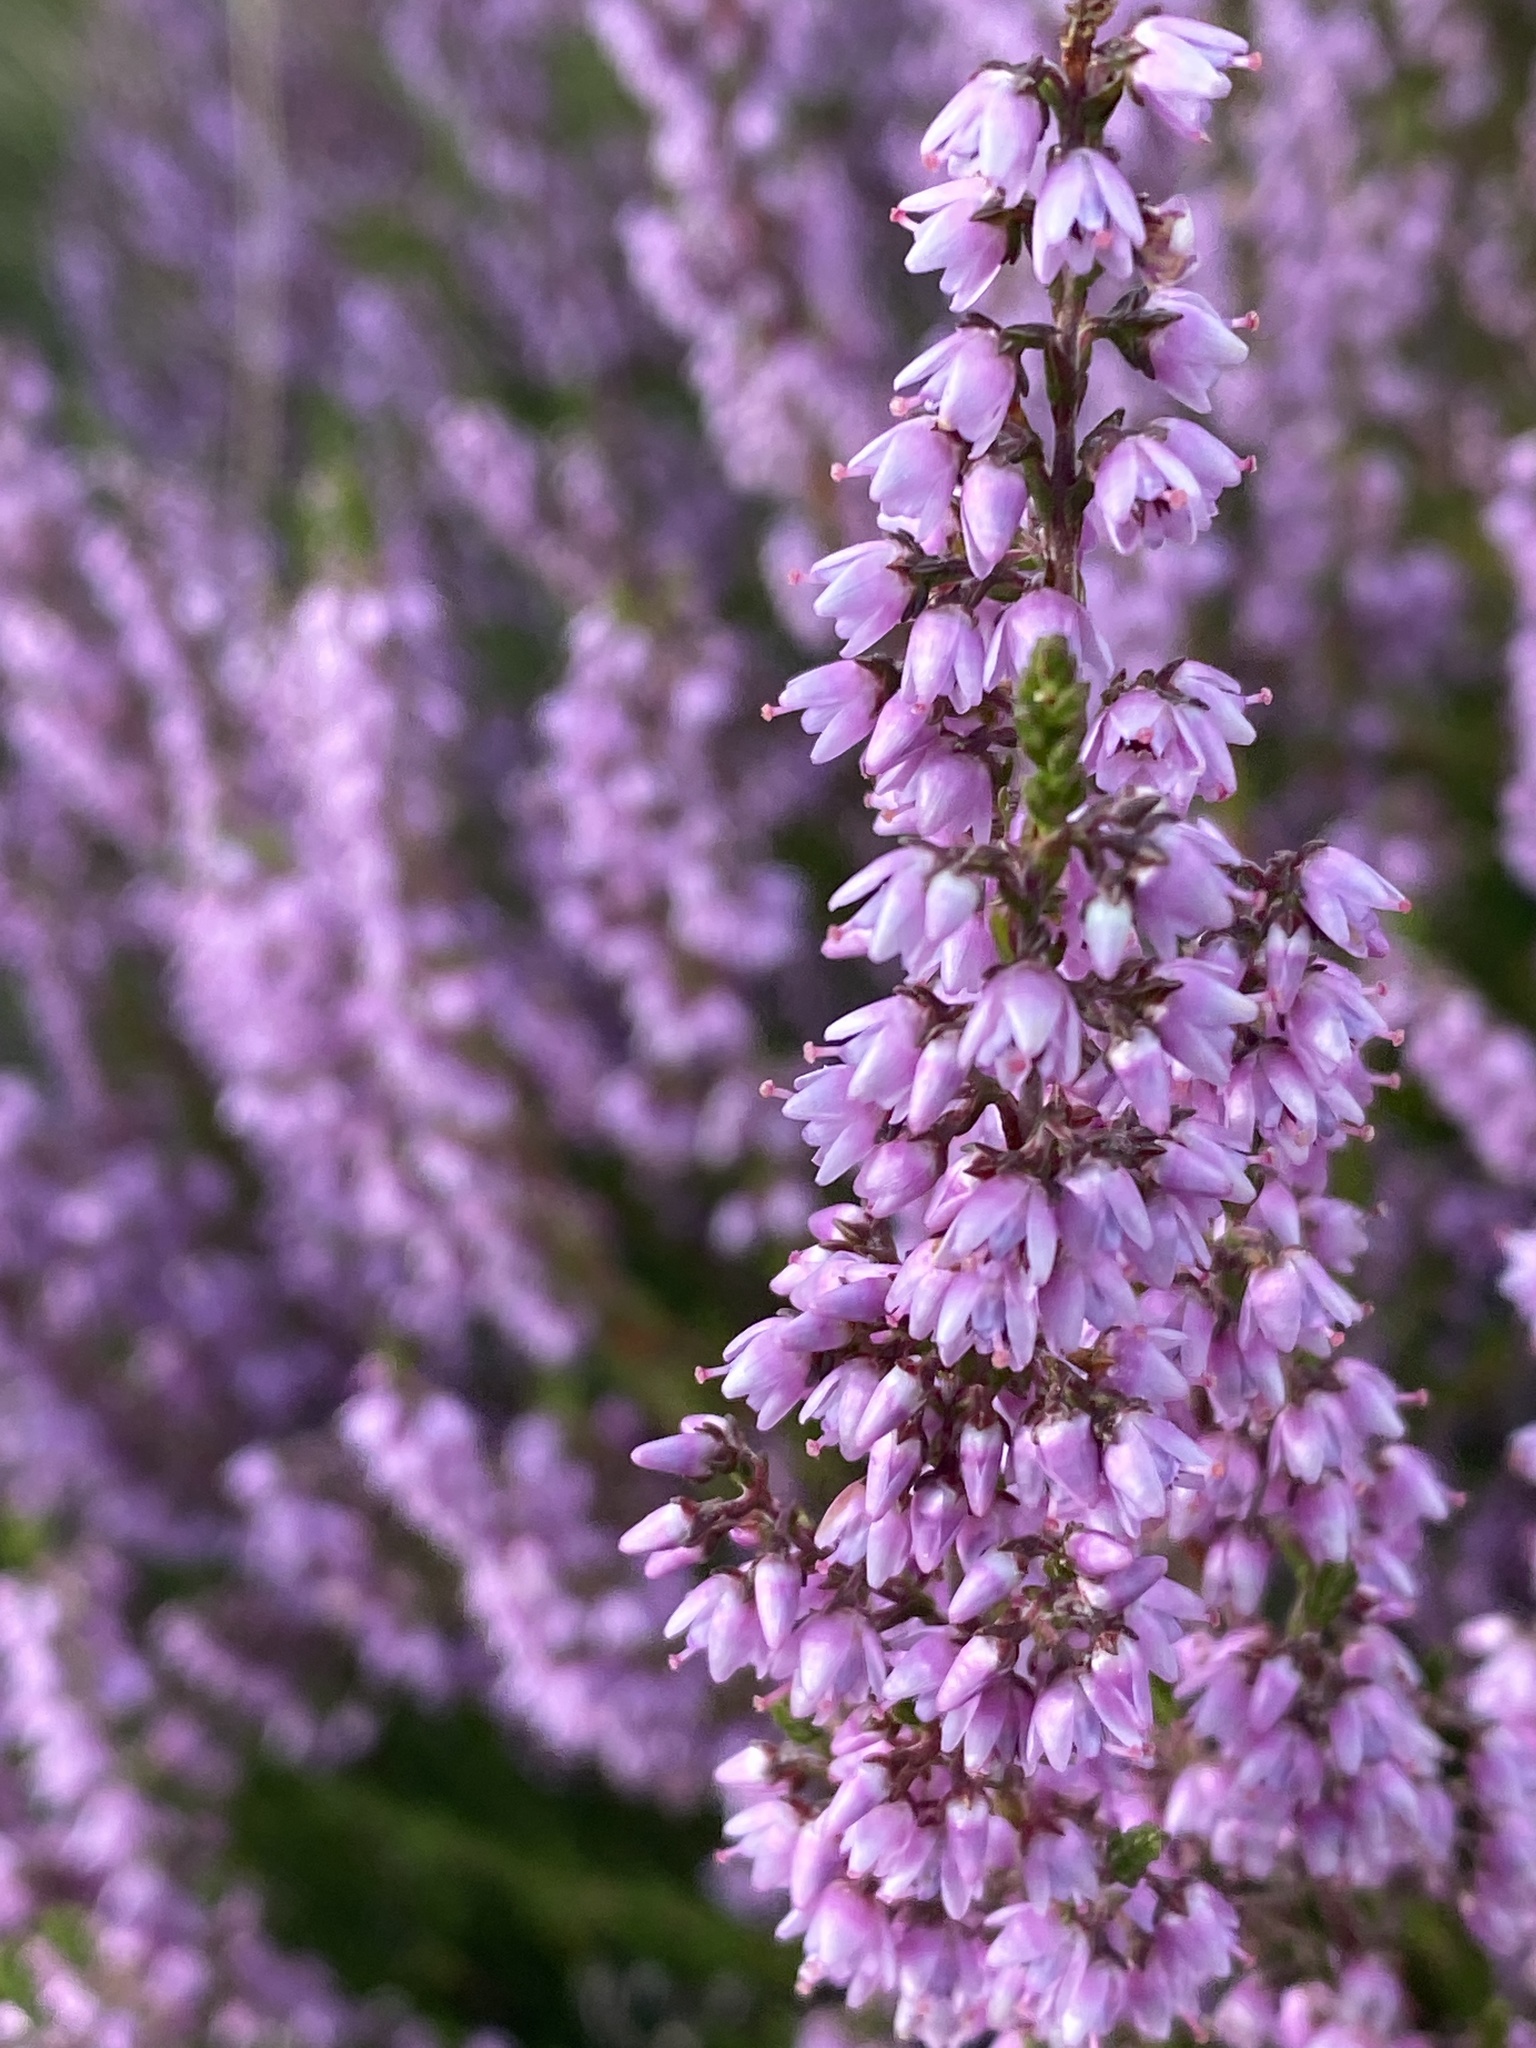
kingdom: Plantae
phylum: Tracheophyta
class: Magnoliopsida
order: Ericales
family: Ericaceae
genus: Calluna
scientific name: Calluna vulgaris
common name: Heather
